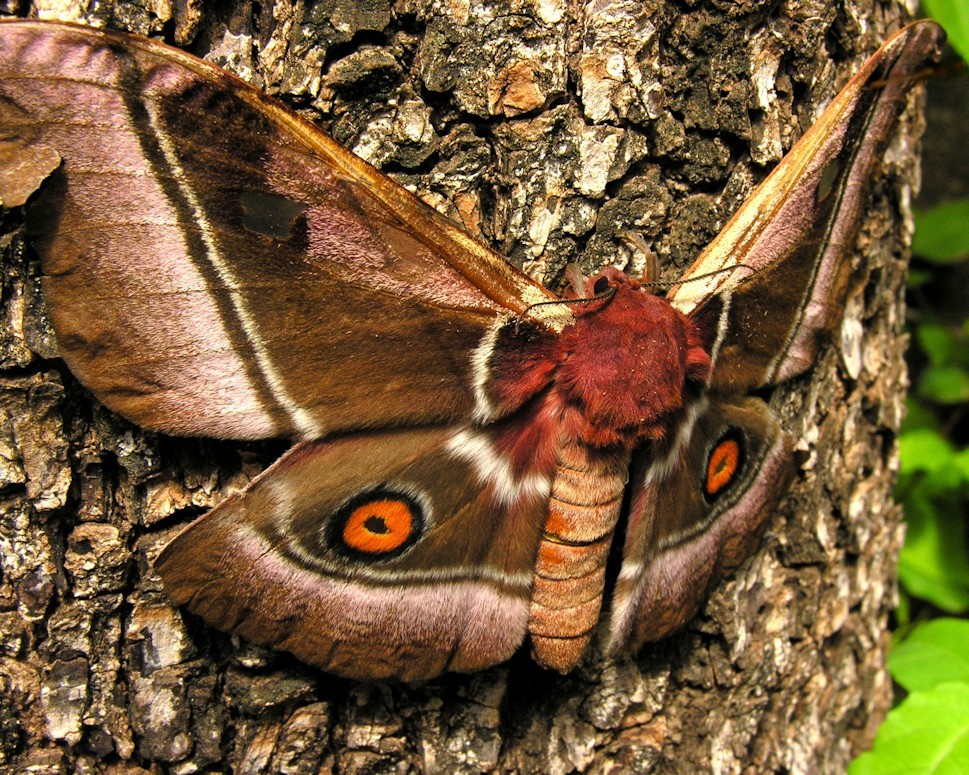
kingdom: Animalia
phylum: Arthropoda
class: Insecta
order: Lepidoptera
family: Saturniidae
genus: Bunaea
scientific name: Bunaea alcinoe
